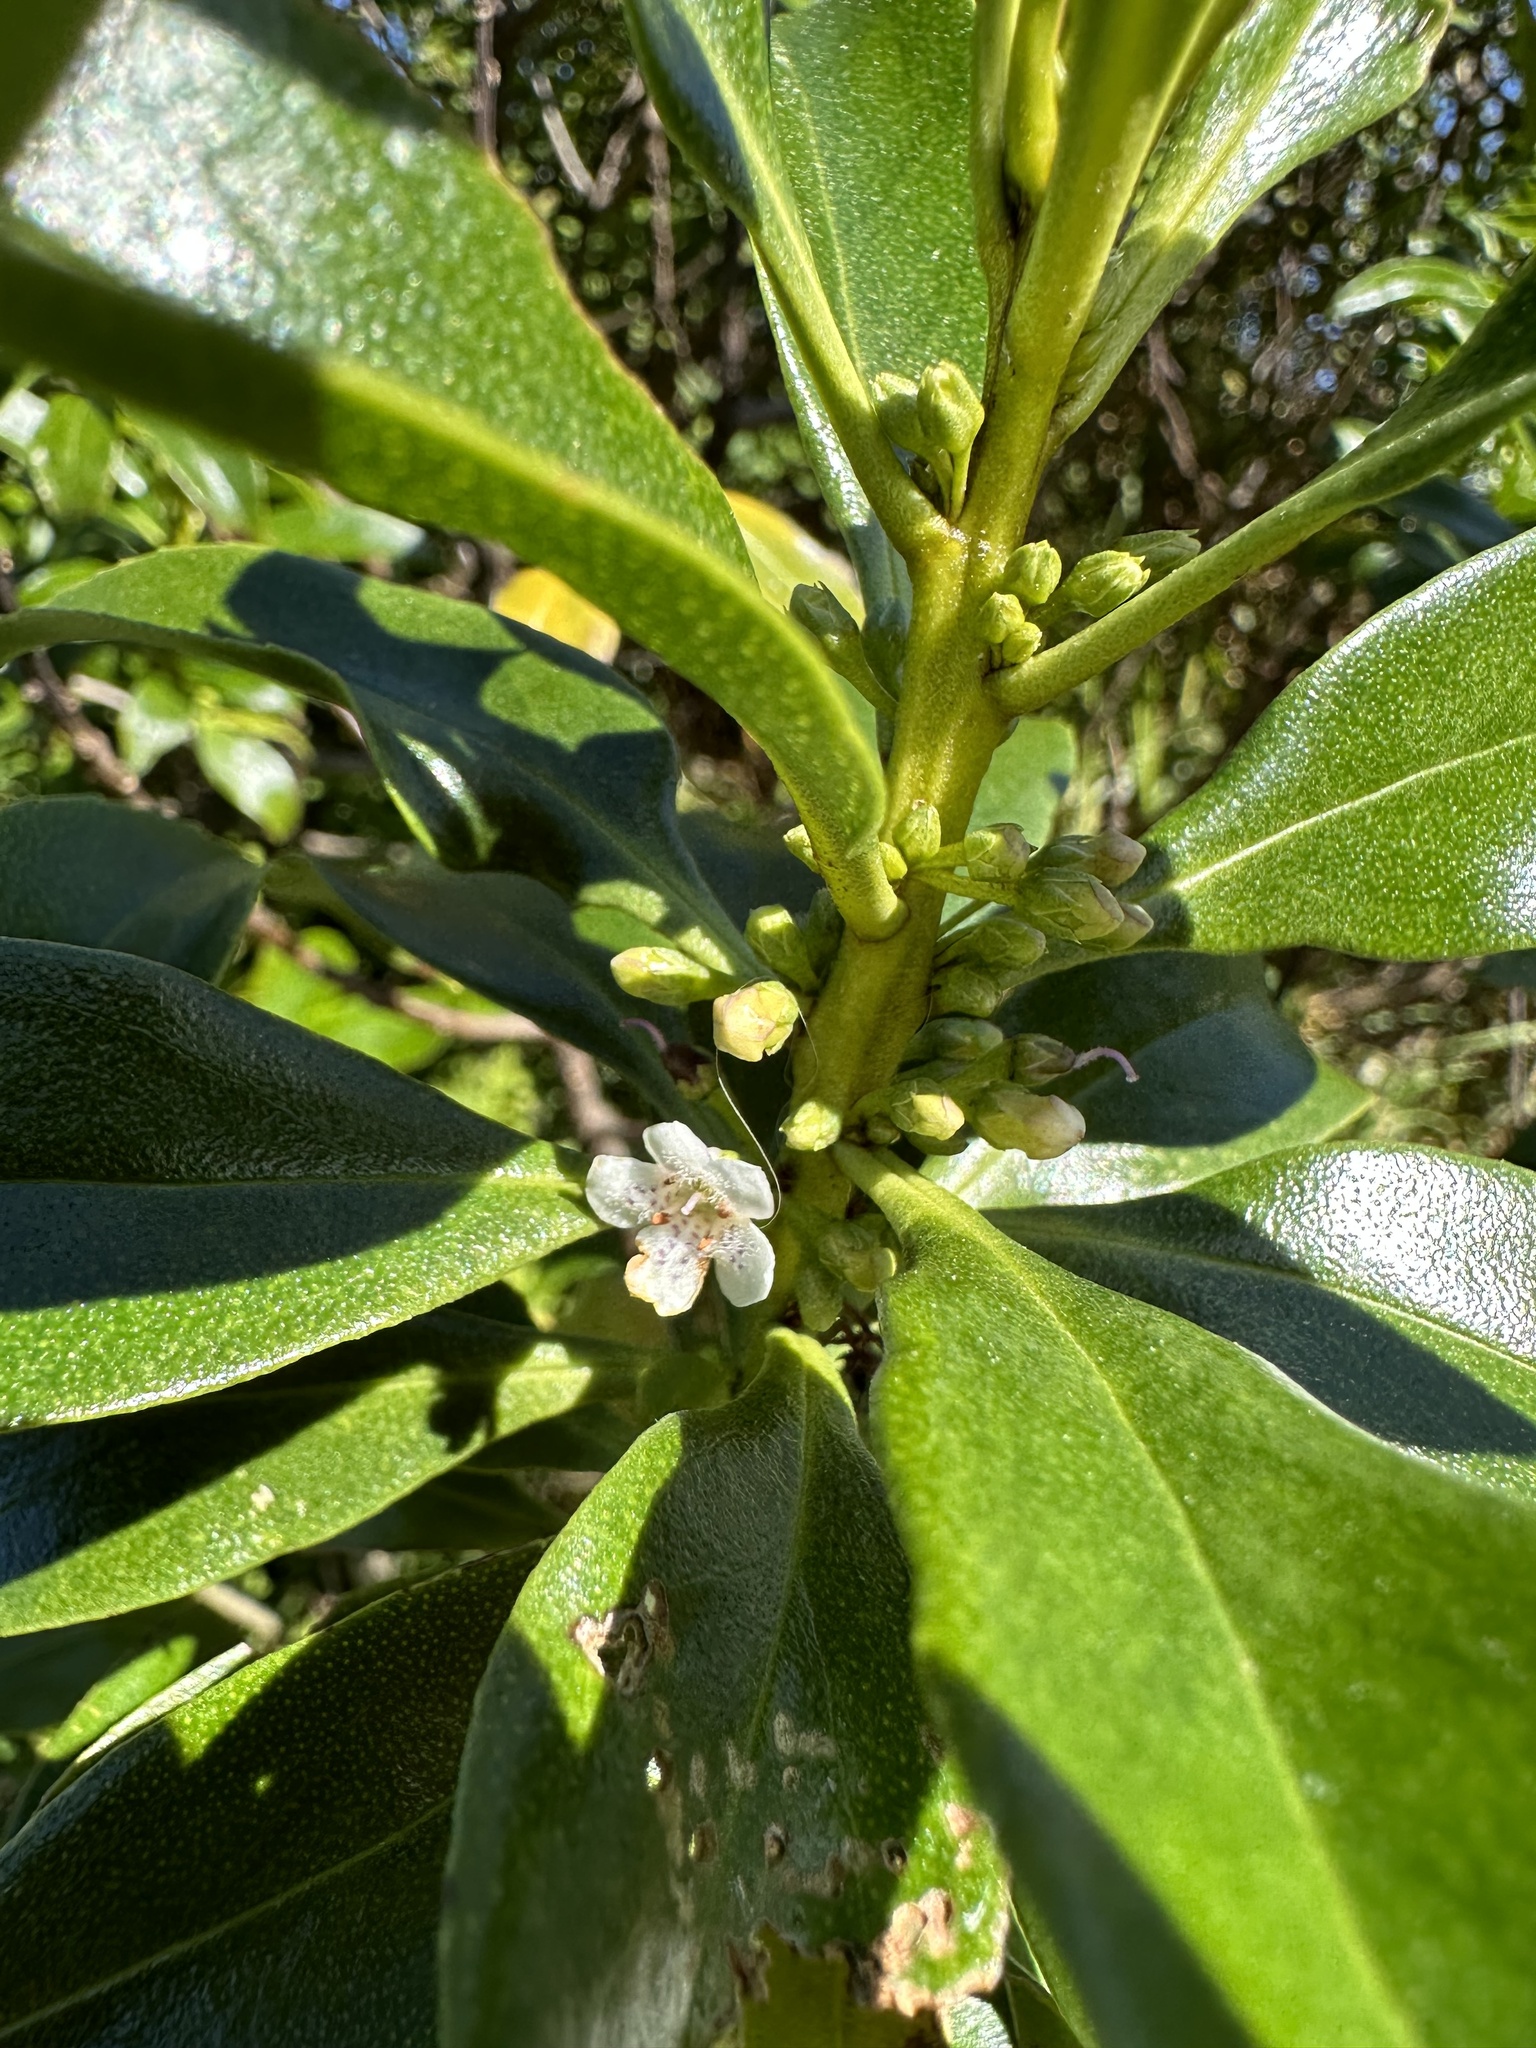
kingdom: Plantae
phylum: Tracheophyta
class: Magnoliopsida
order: Lamiales
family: Scrophulariaceae
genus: Myoporum
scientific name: Myoporum laetum
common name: Ngaio tree
